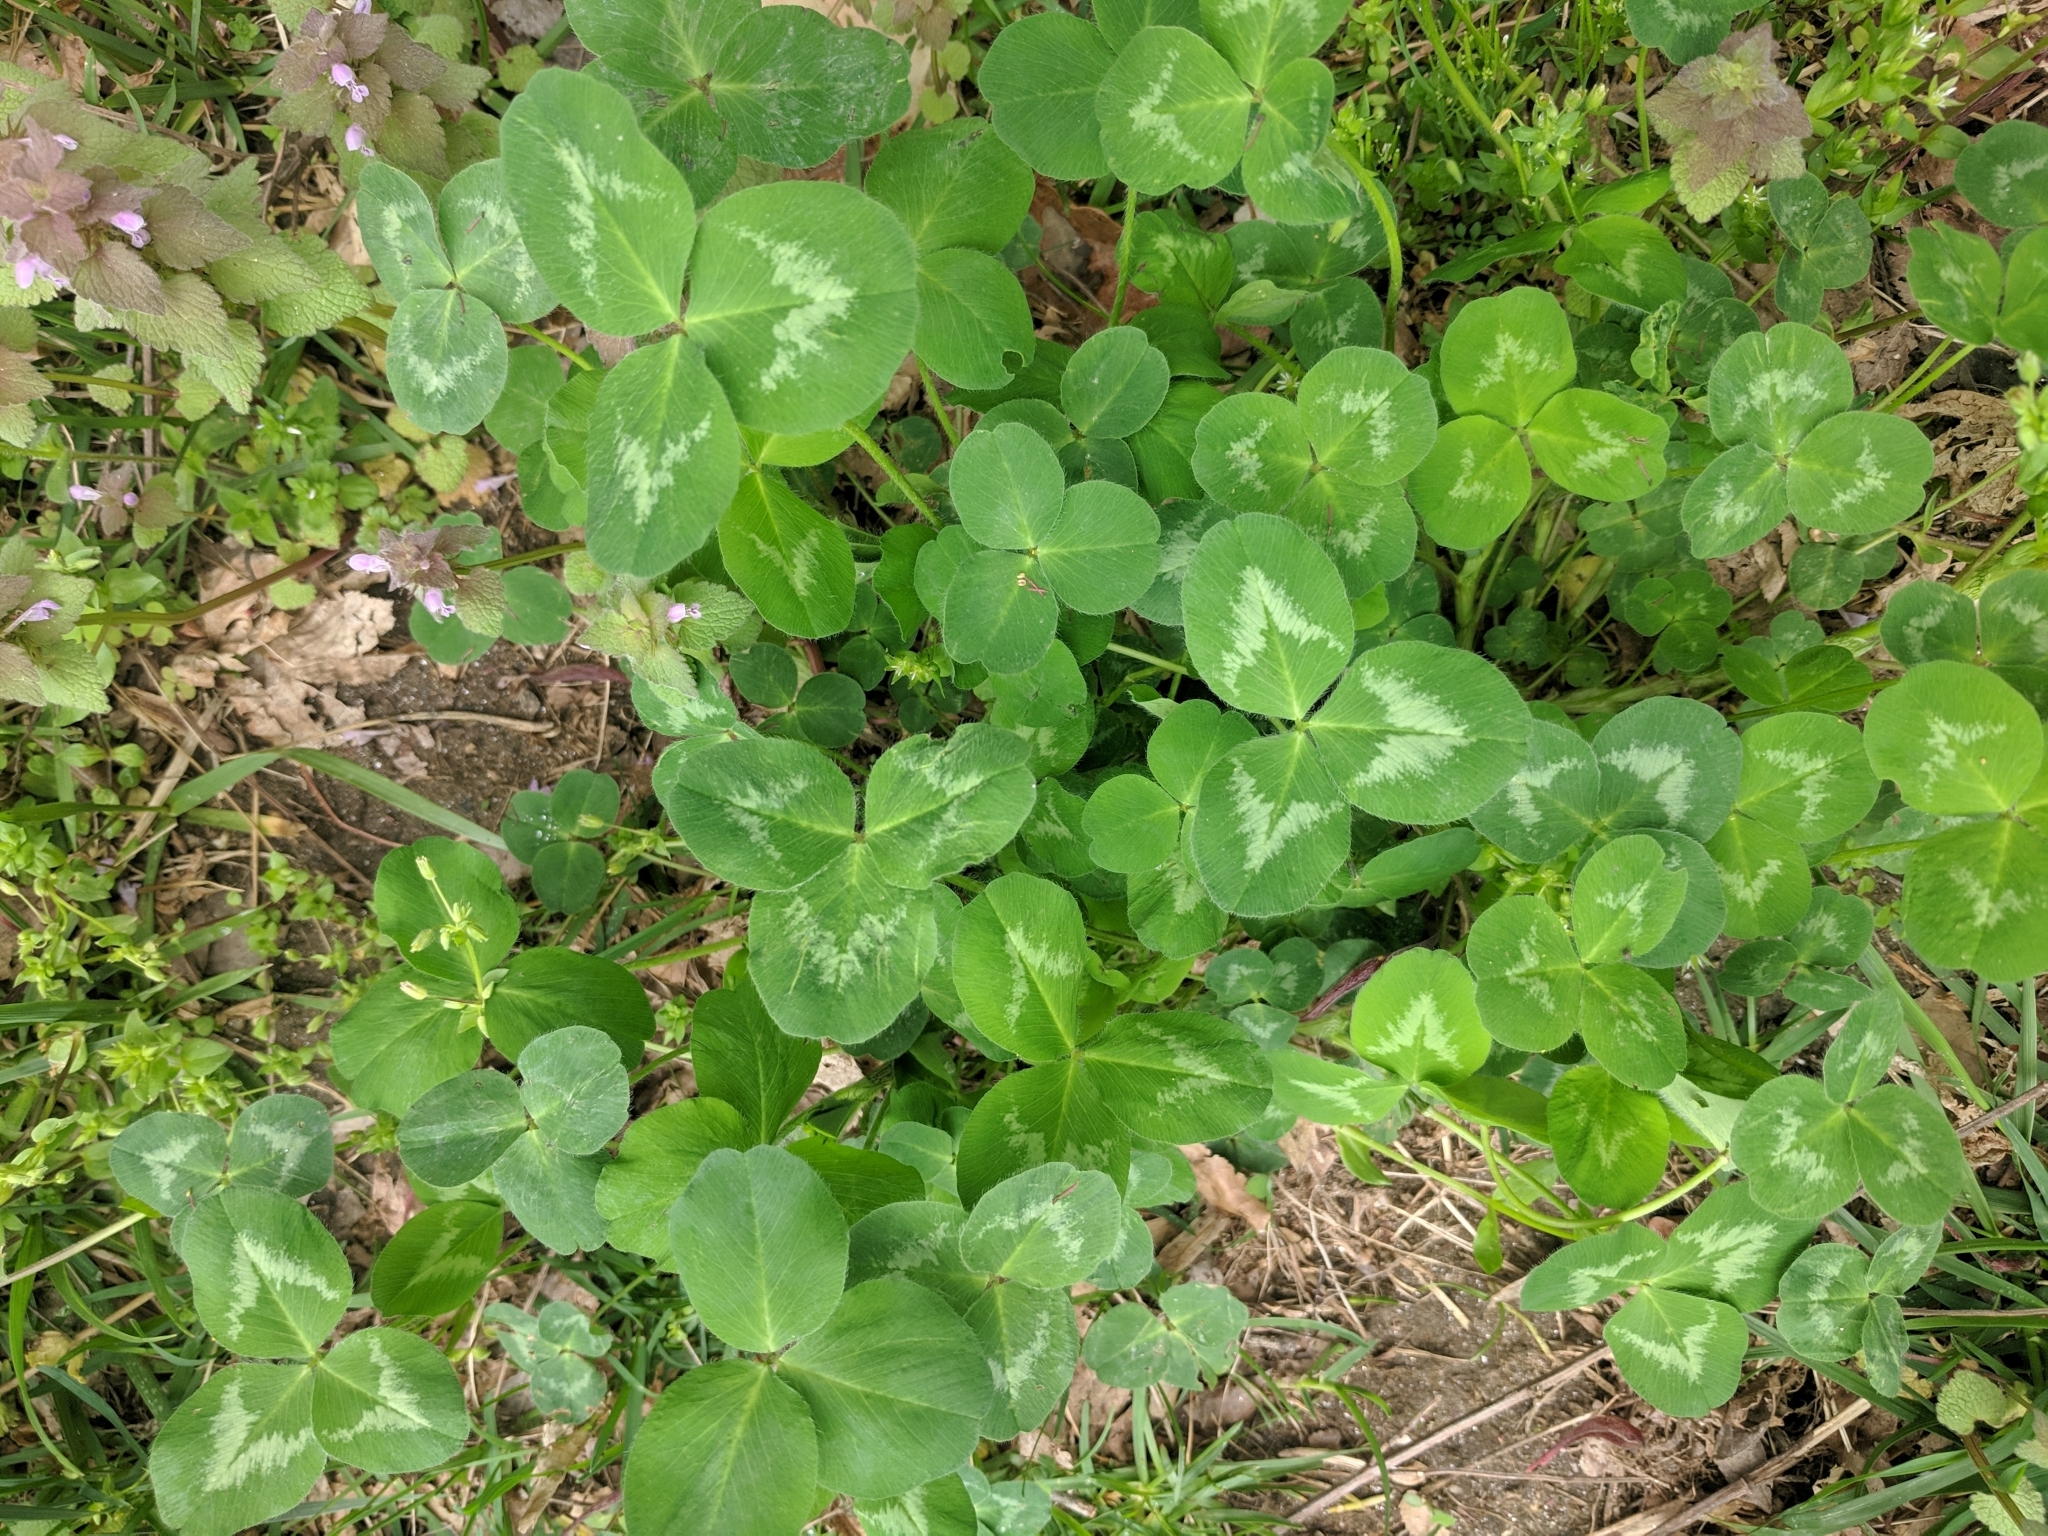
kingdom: Plantae
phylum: Tracheophyta
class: Magnoliopsida
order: Fabales
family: Fabaceae
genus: Trifolium
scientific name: Trifolium repens
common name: White clover
